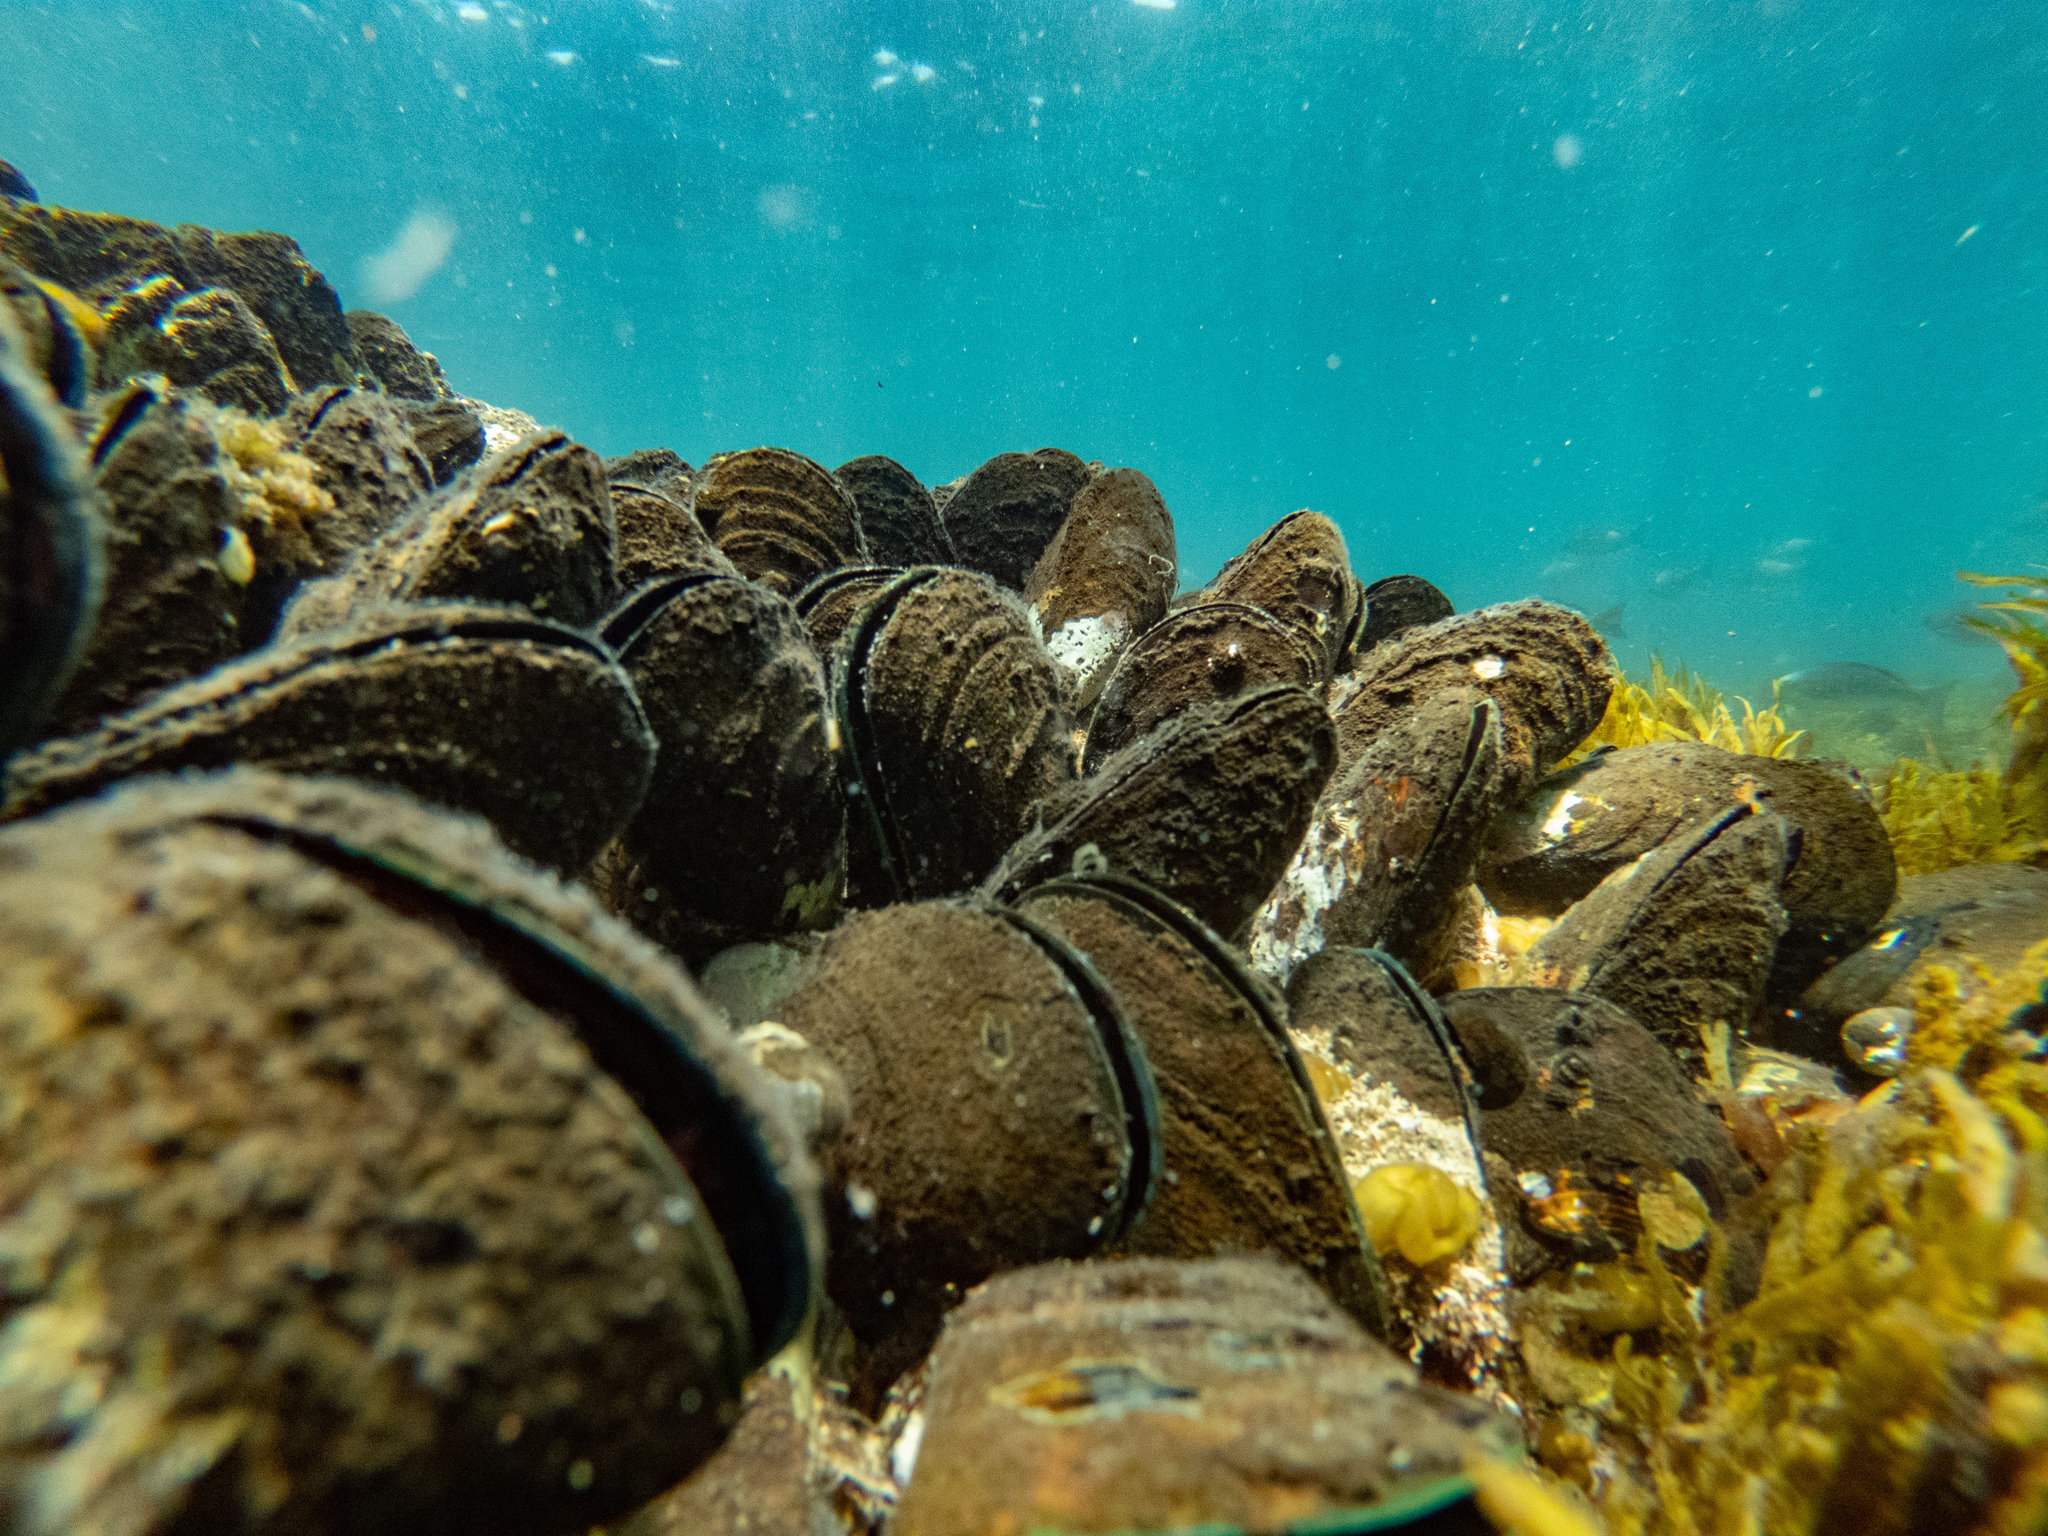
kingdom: Animalia
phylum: Mollusca
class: Bivalvia
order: Mytilida
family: Mytilidae
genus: Perna
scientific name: Perna canaliculus
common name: New zealand greenshelltm
